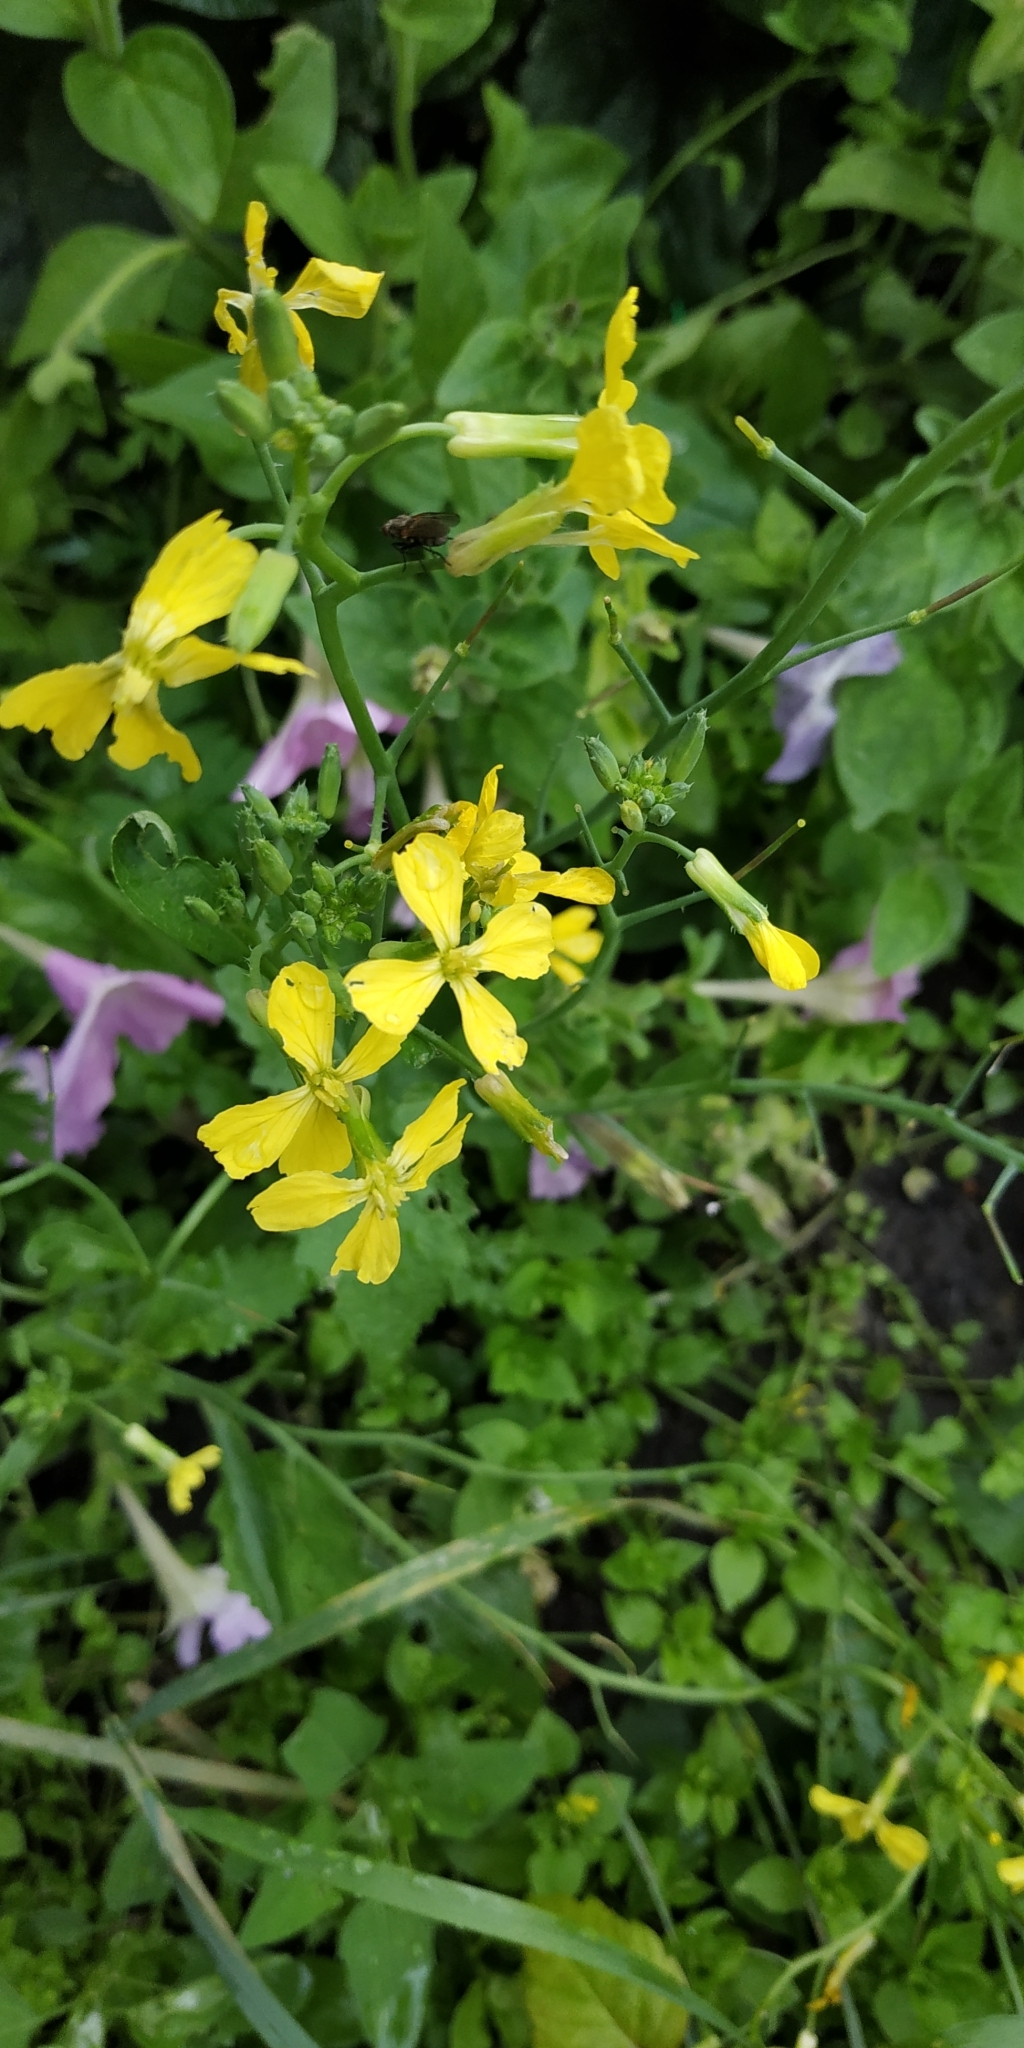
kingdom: Plantae
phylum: Tracheophyta
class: Magnoliopsida
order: Brassicales
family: Brassicaceae
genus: Raphanus
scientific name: Raphanus raphanistrum
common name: Wild radish
